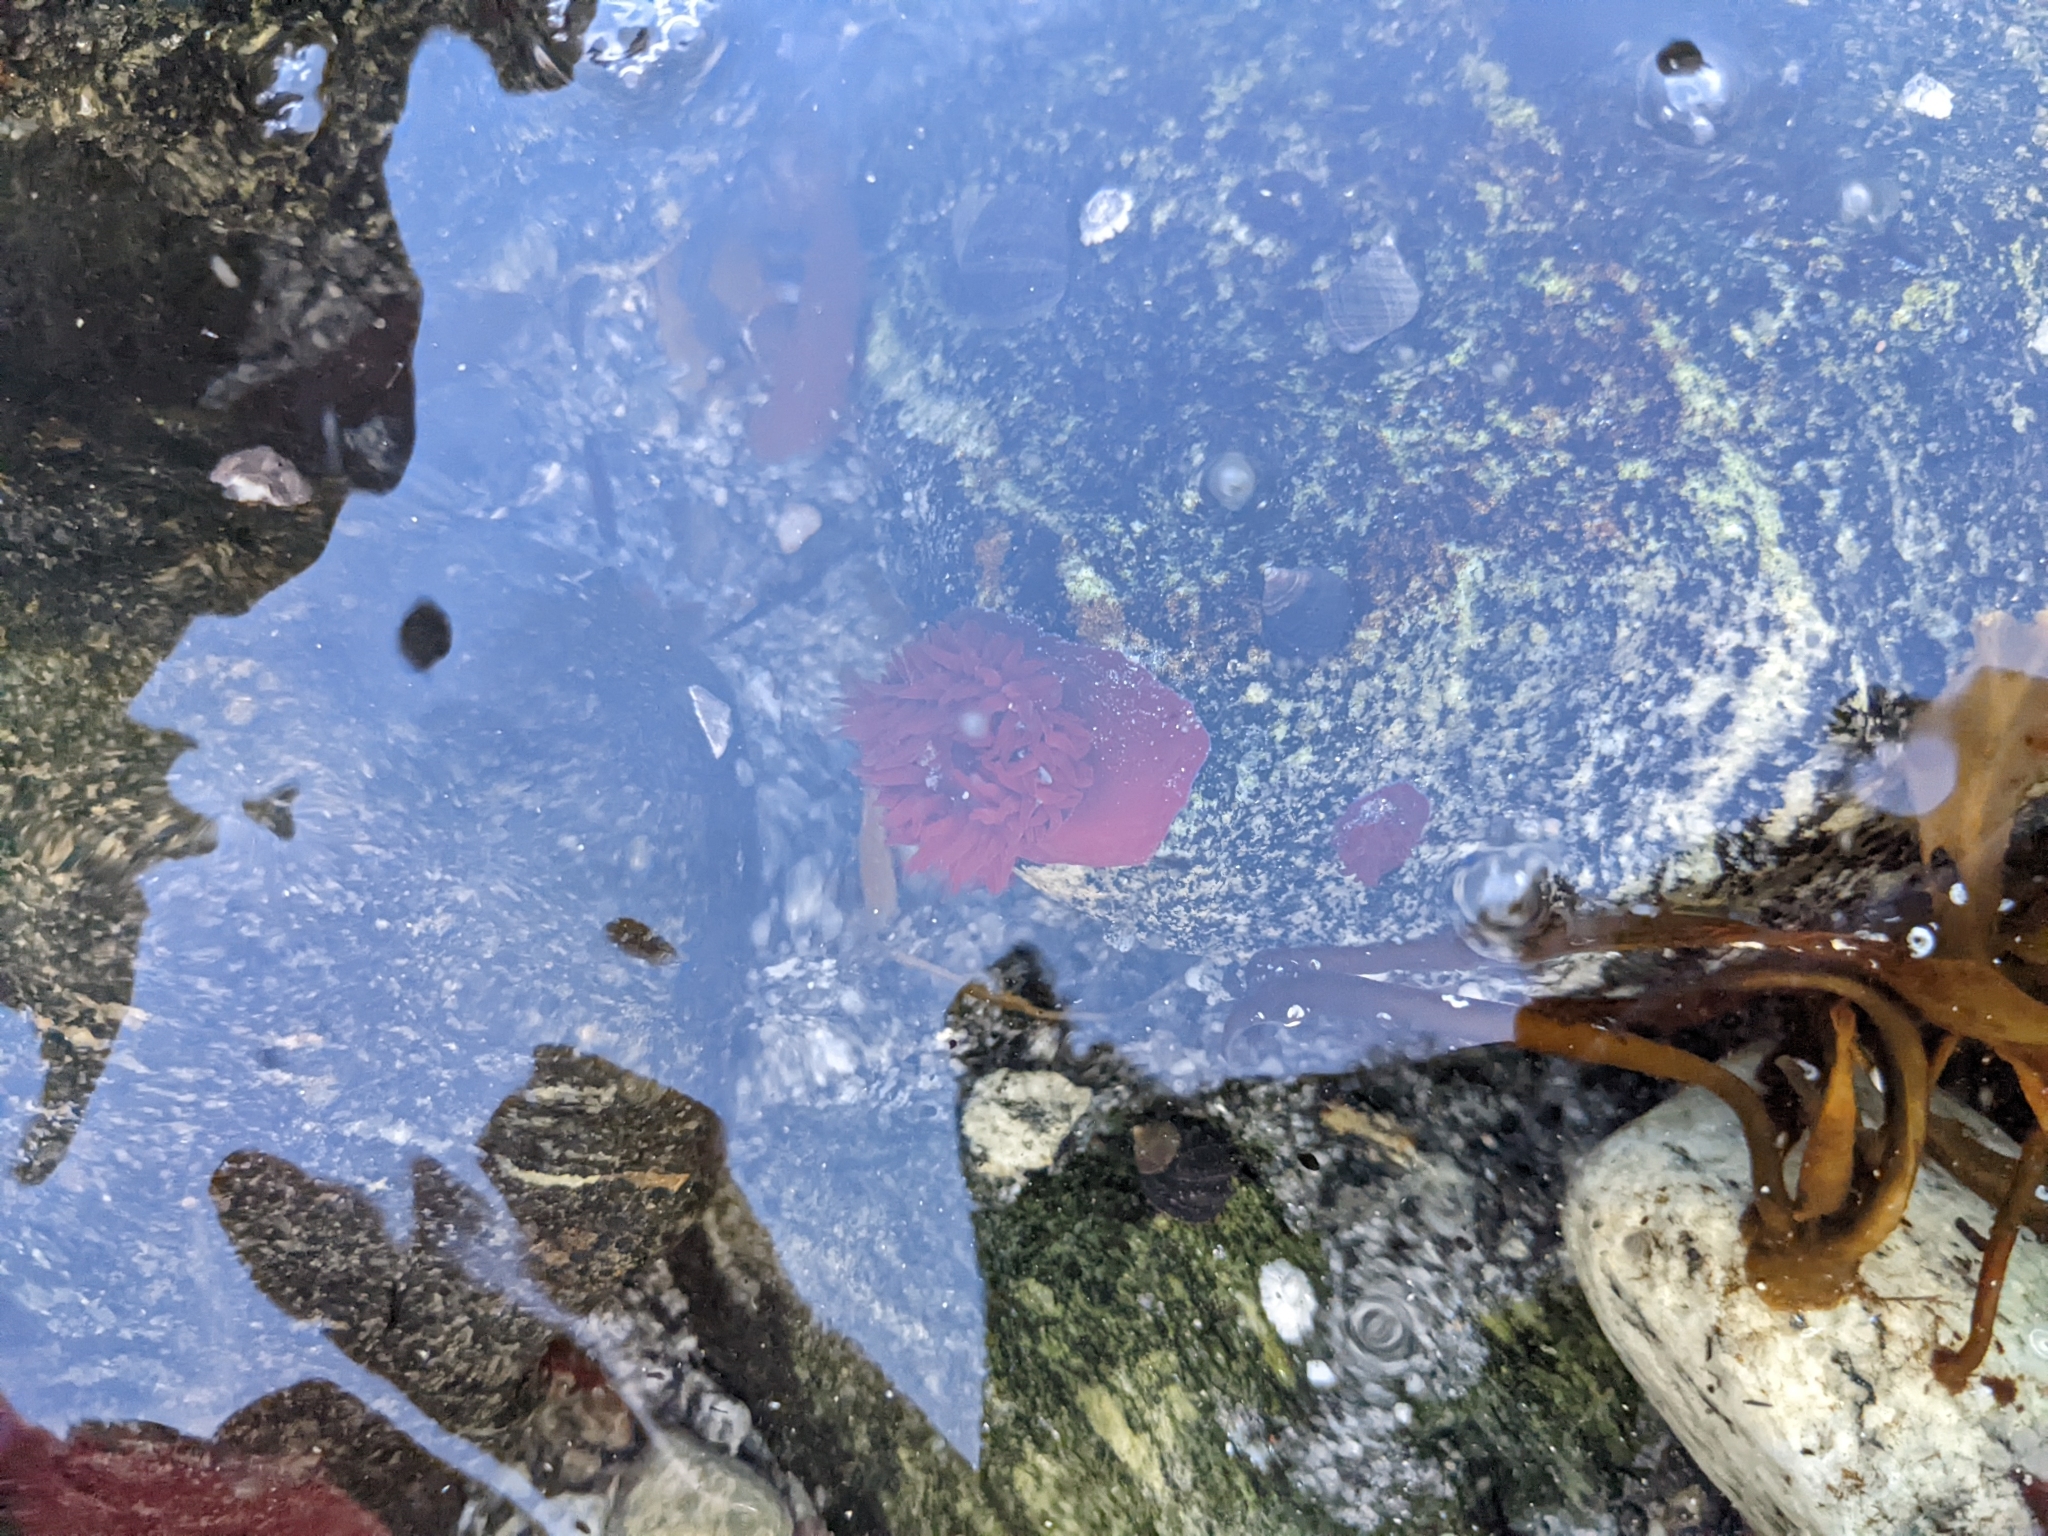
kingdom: Animalia
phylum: Cnidaria
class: Anthozoa
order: Actiniaria
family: Actiniidae
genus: Actinia
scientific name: Actinia equina
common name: Beadlet anemone
